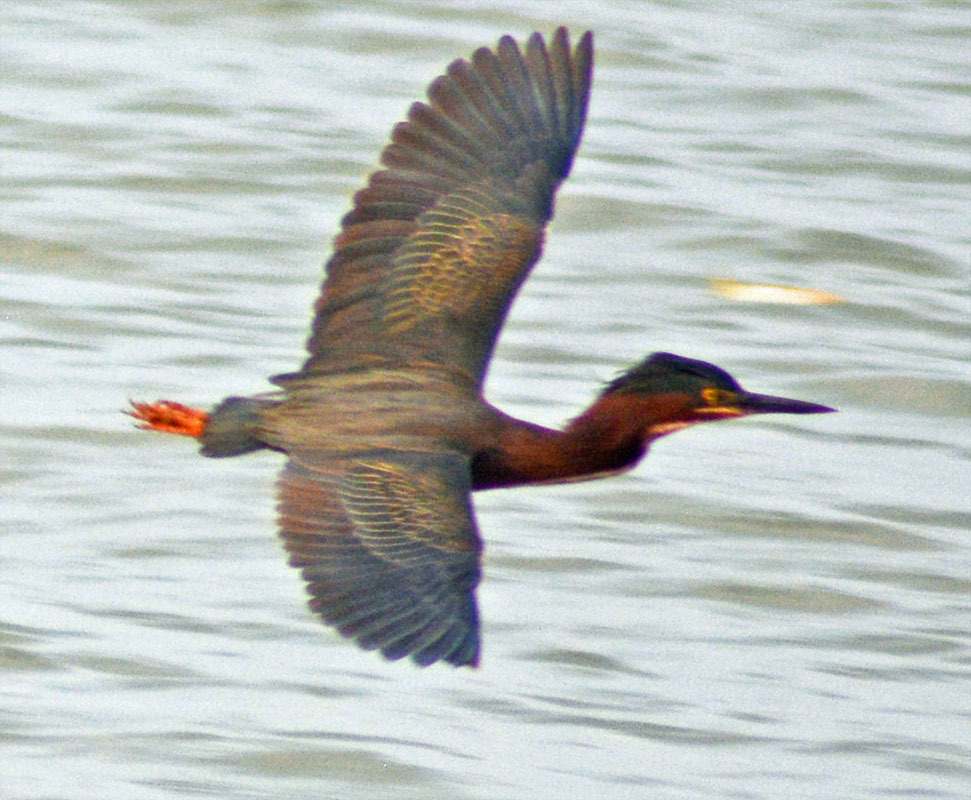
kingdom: Animalia
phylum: Chordata
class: Aves
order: Pelecaniformes
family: Ardeidae
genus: Butorides
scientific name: Butorides virescens
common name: Green heron
